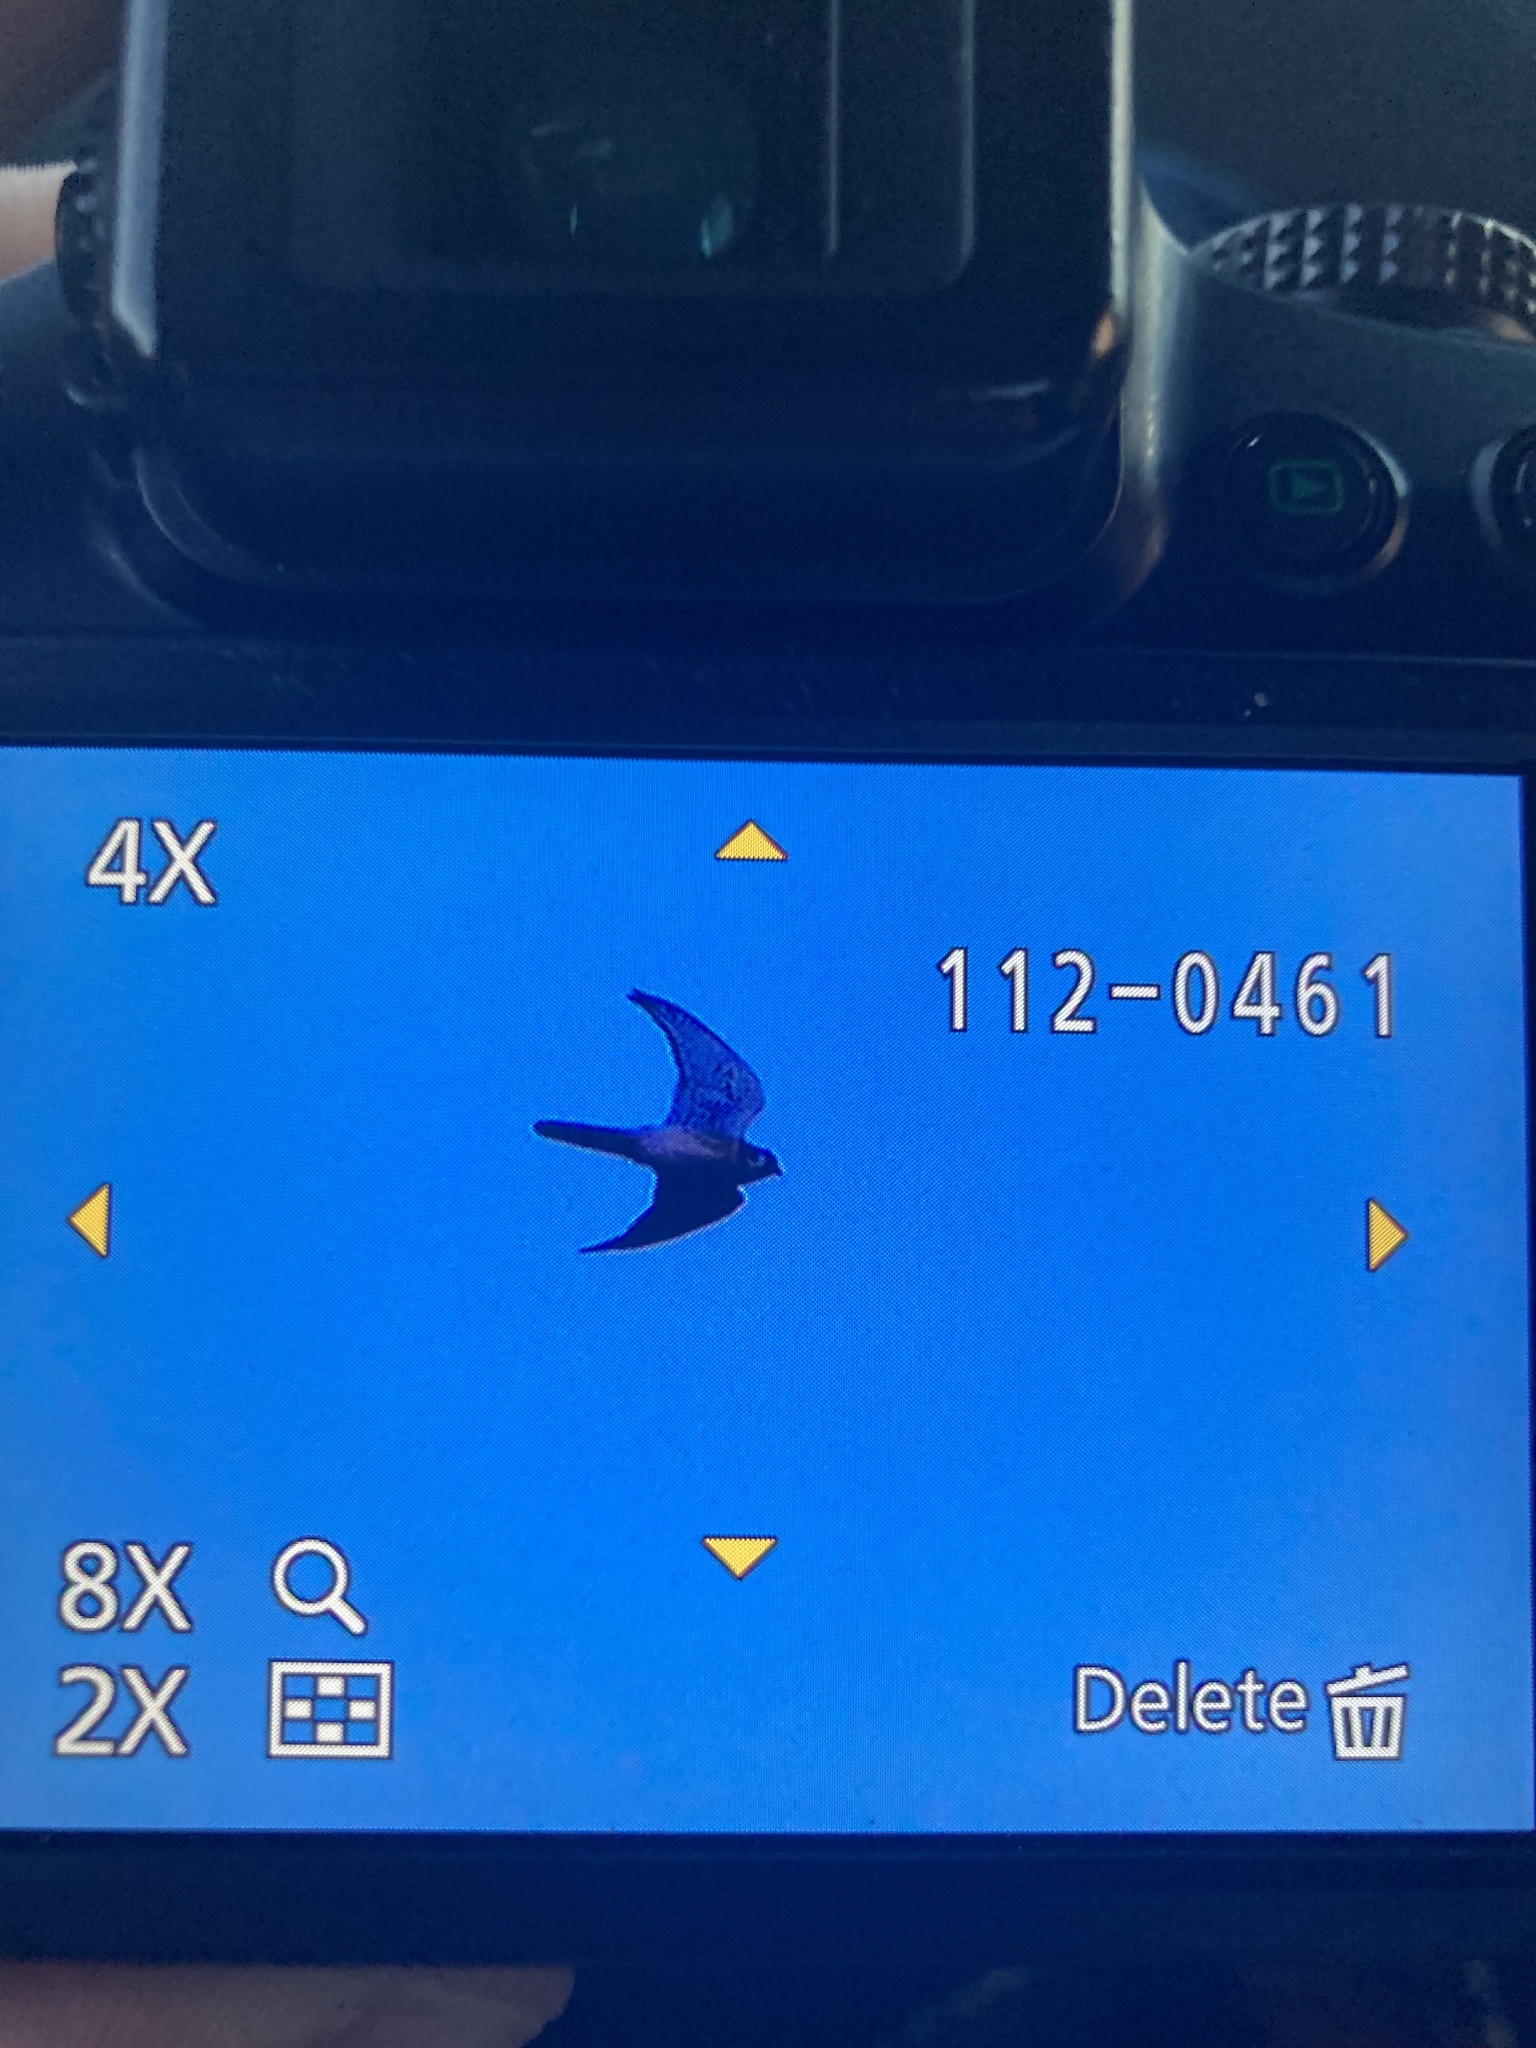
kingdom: Animalia
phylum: Chordata
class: Aves
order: Falconiformes
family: Falconidae
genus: Falco
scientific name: Falco sparverius
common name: American kestrel
